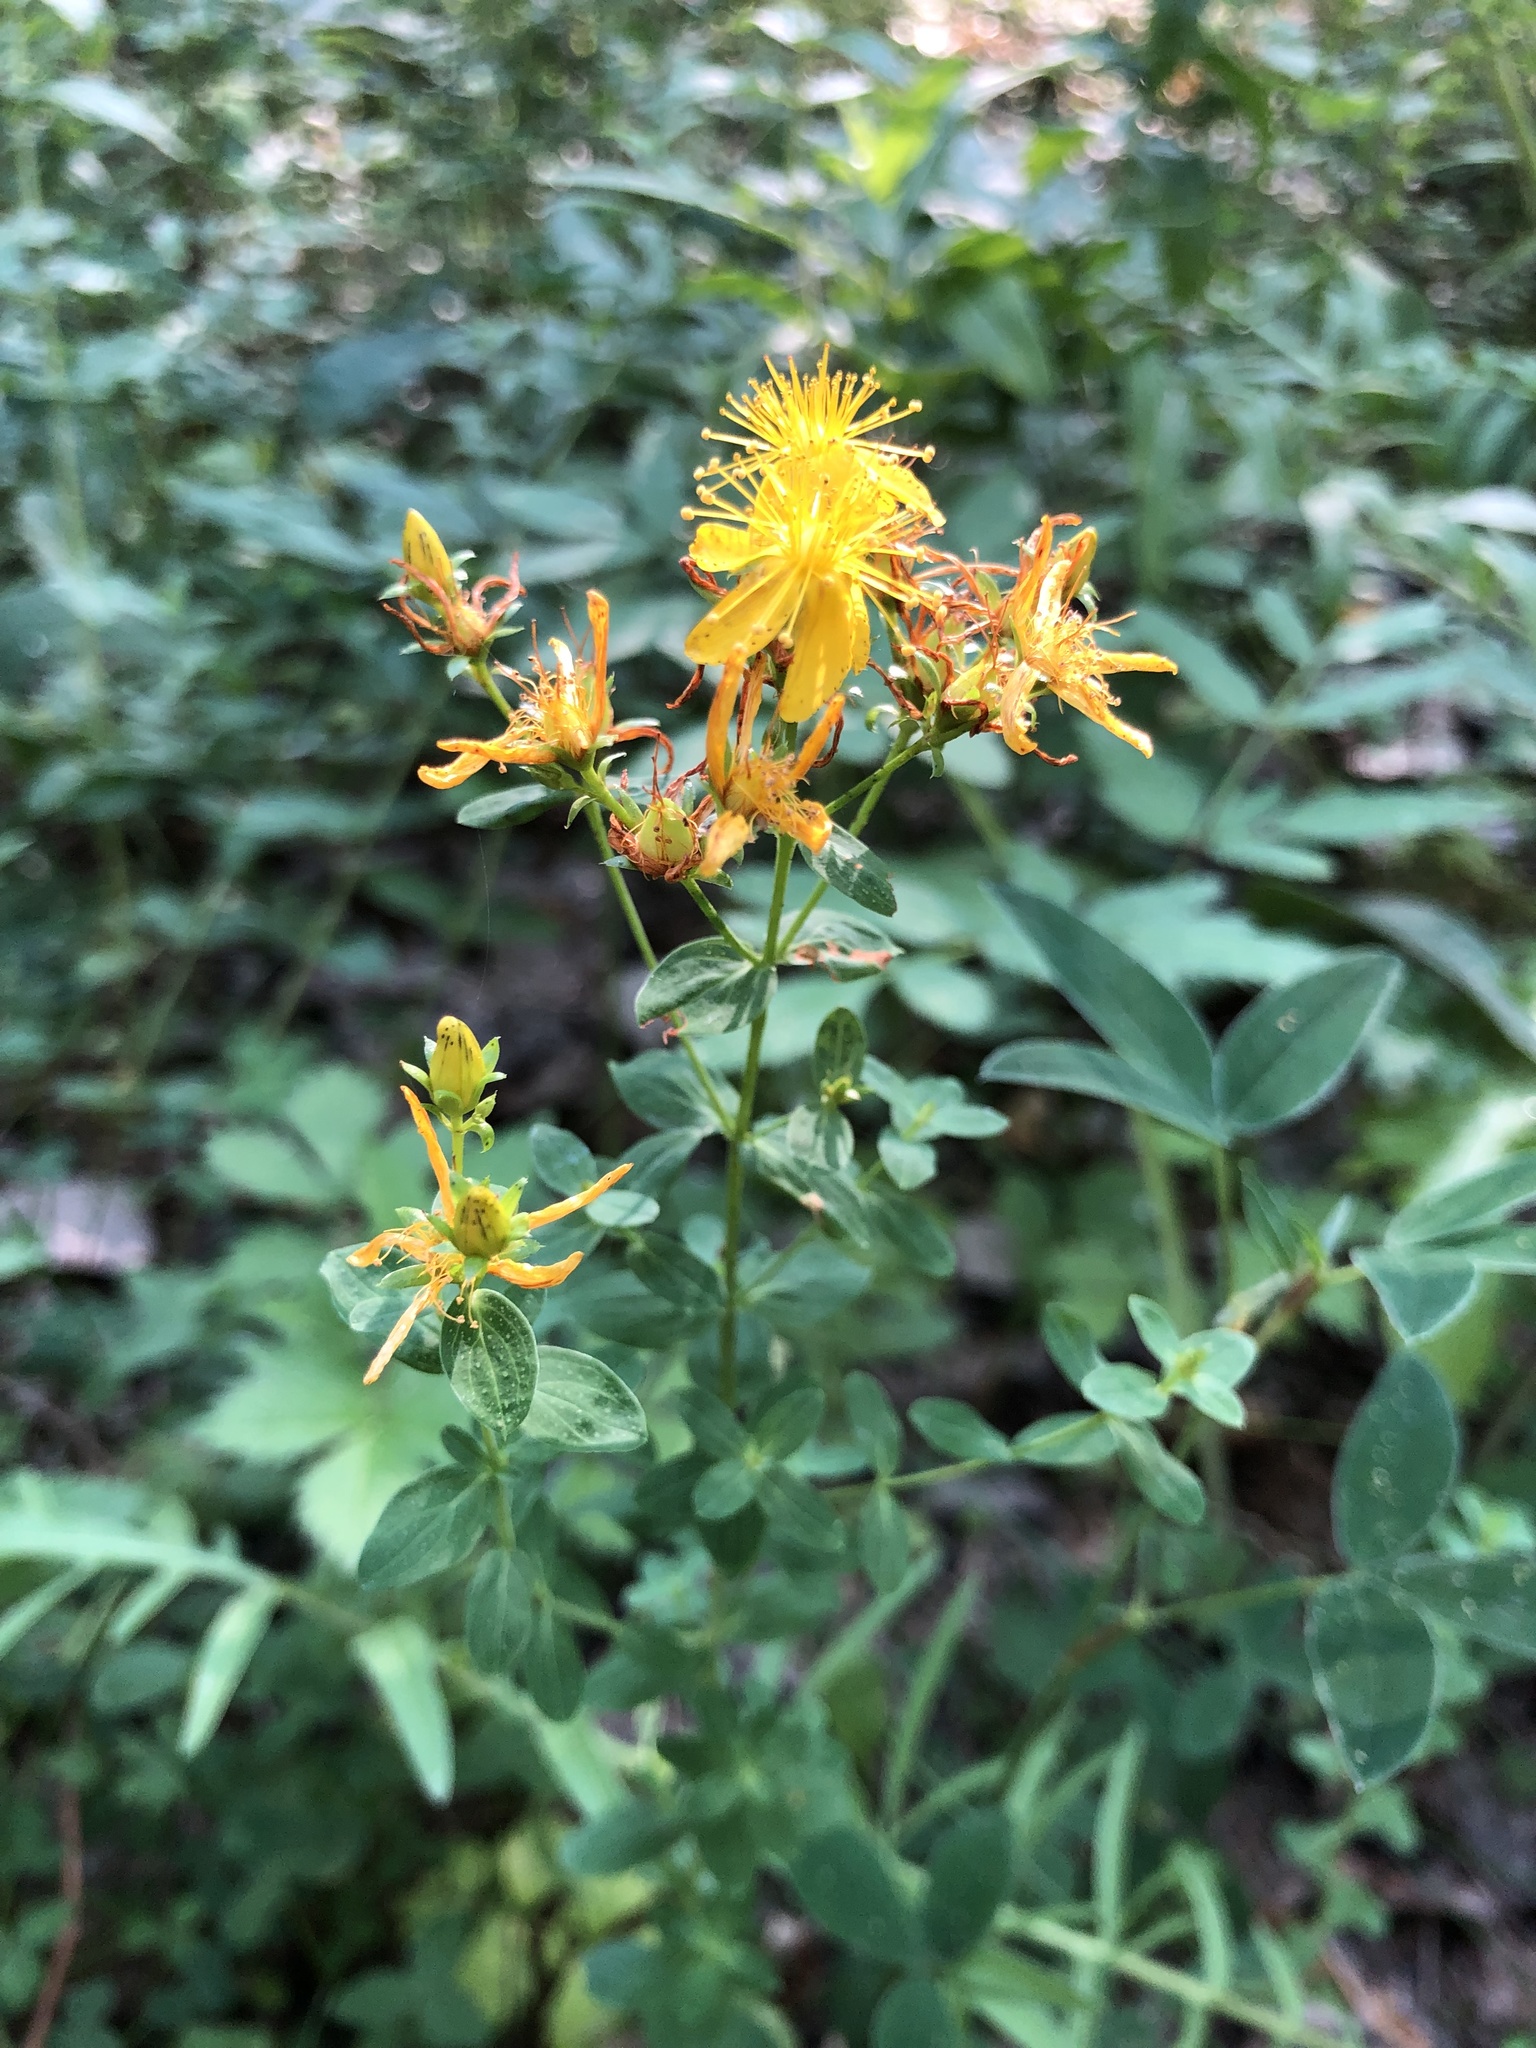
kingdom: Plantae
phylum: Tracheophyta
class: Magnoliopsida
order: Malpighiales
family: Hypericaceae
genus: Hypericum
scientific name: Hypericum perforatum
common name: Common st. johnswort
